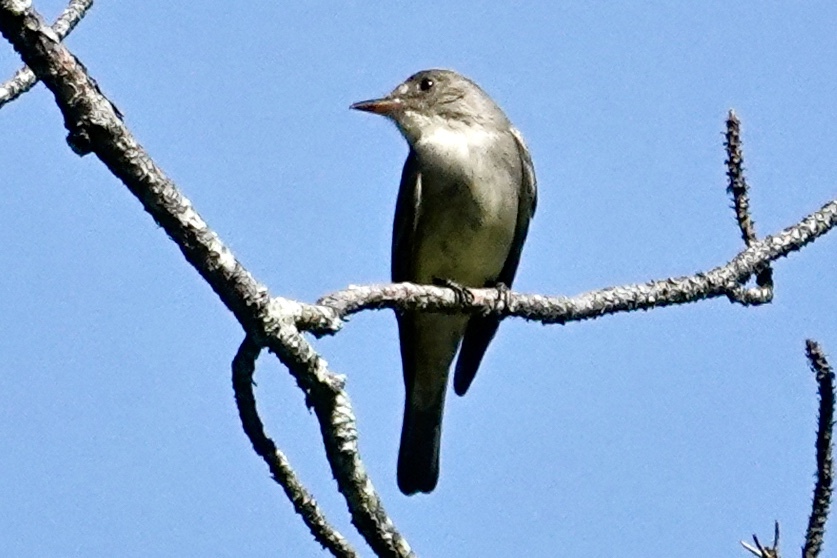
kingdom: Animalia
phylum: Chordata
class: Aves
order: Passeriformes
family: Tyrannidae
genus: Contopus
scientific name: Contopus virens
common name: Eastern wood-pewee
